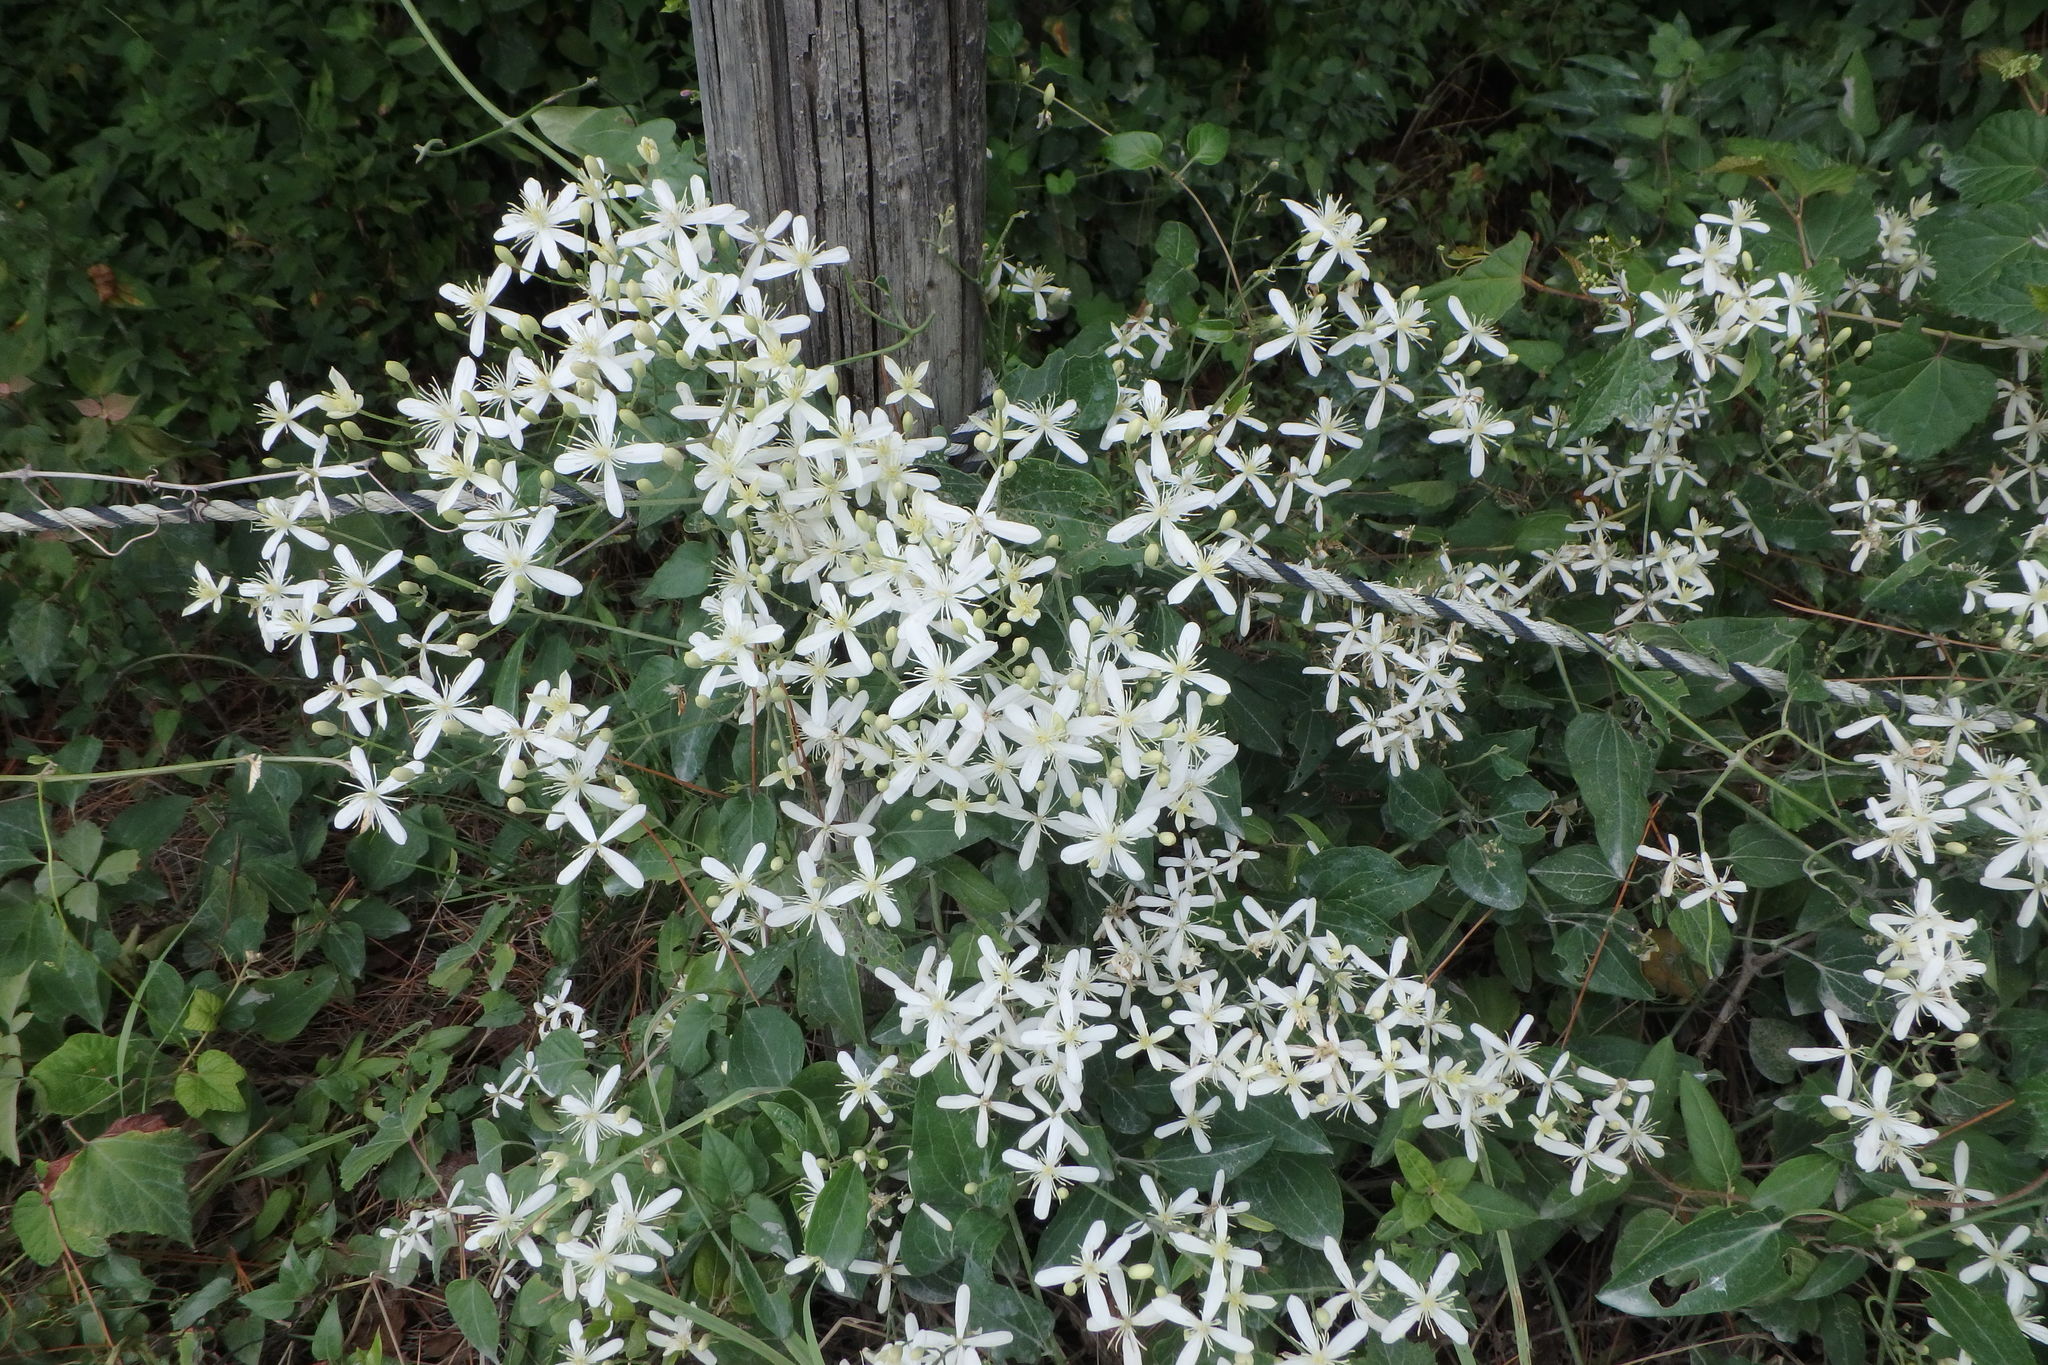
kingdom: Plantae
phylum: Tracheophyta
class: Magnoliopsida
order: Ranunculales
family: Ranunculaceae
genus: Clematis
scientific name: Clematis terniflora
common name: Sweet autumn clematis
